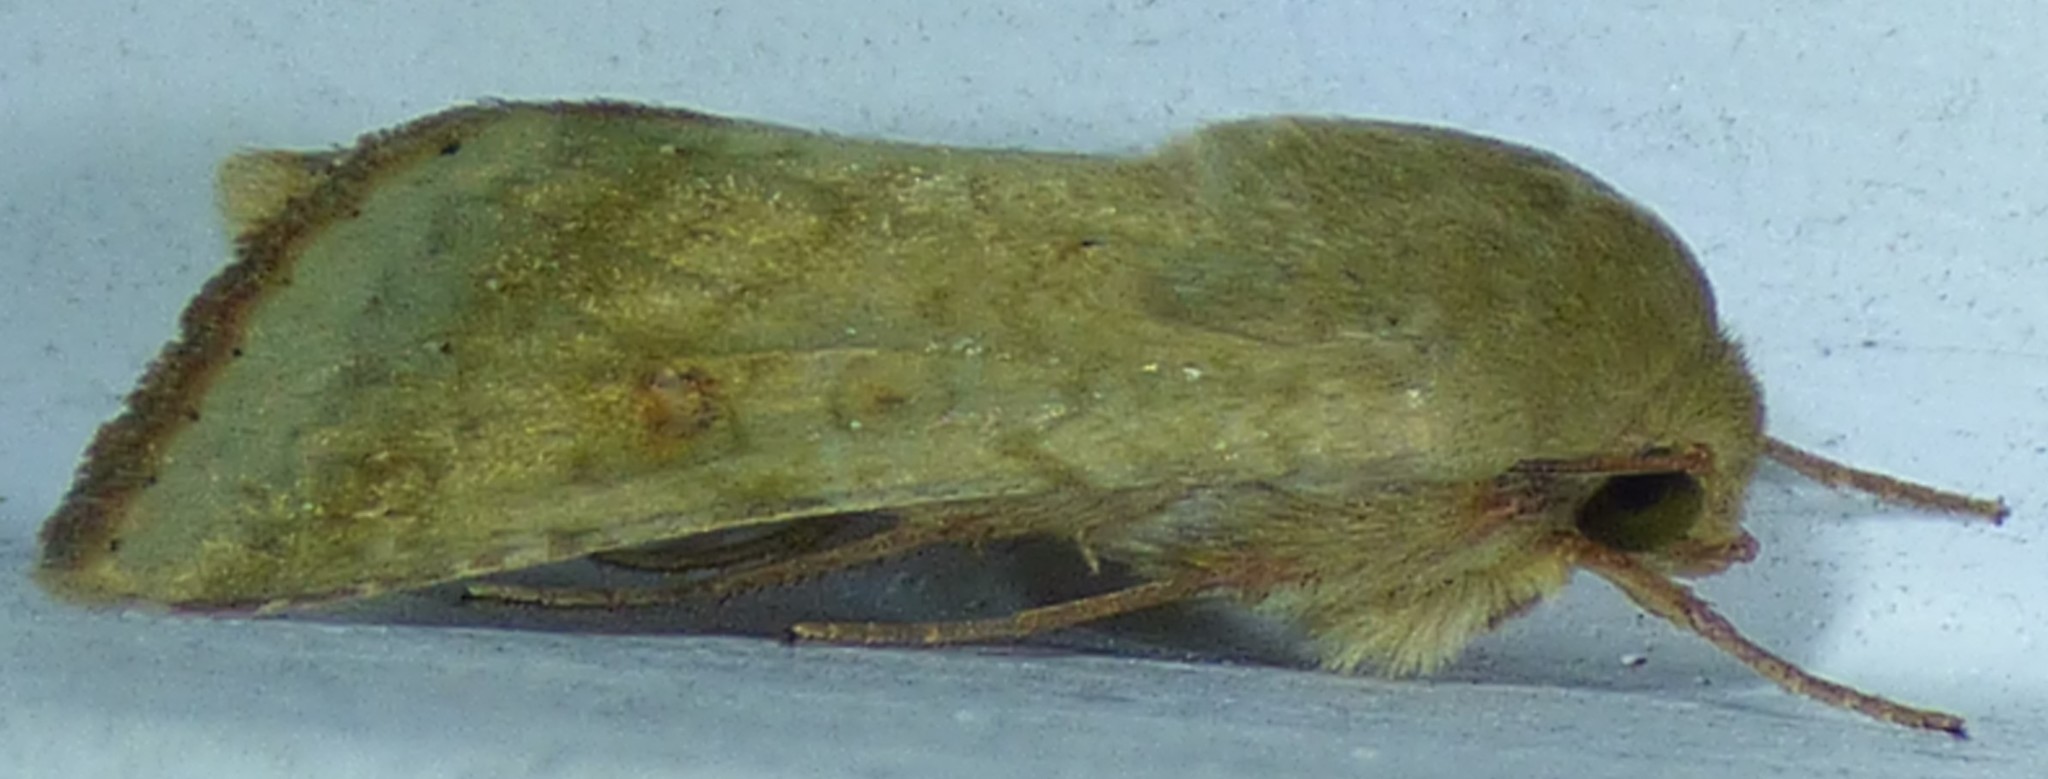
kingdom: Animalia
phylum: Arthropoda
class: Insecta
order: Lepidoptera
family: Noctuidae
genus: Helicoverpa
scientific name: Helicoverpa zea
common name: Bollworm
